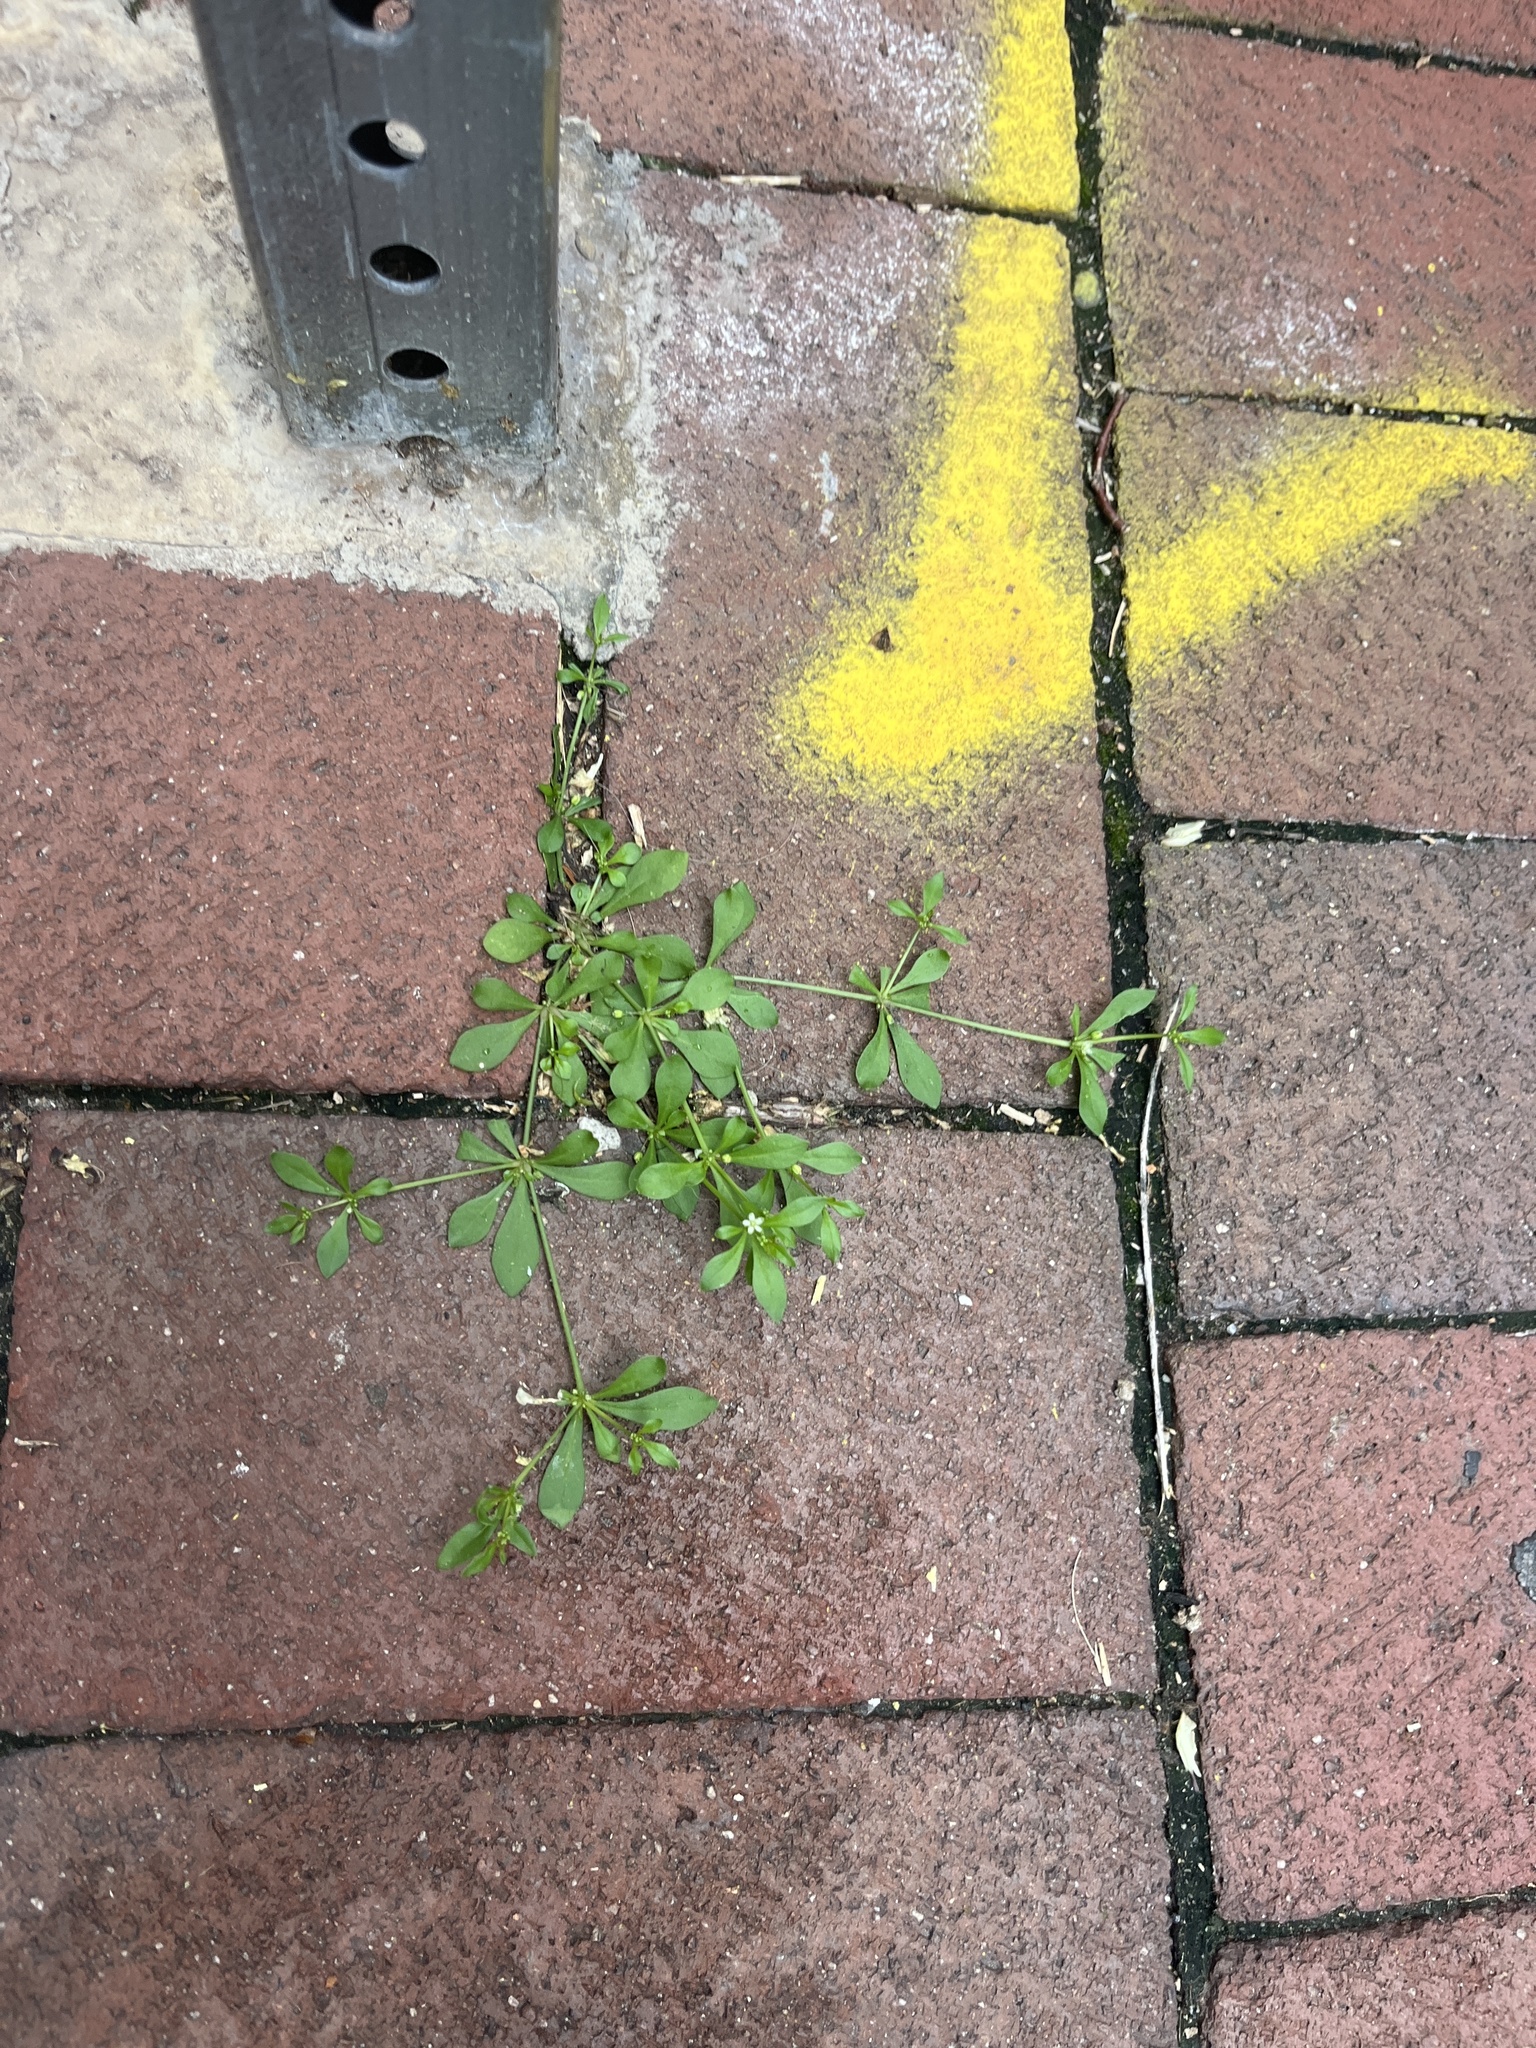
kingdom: Plantae
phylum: Tracheophyta
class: Magnoliopsida
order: Caryophyllales
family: Molluginaceae
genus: Mollugo
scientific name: Mollugo verticillata
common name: Green carpetweed
